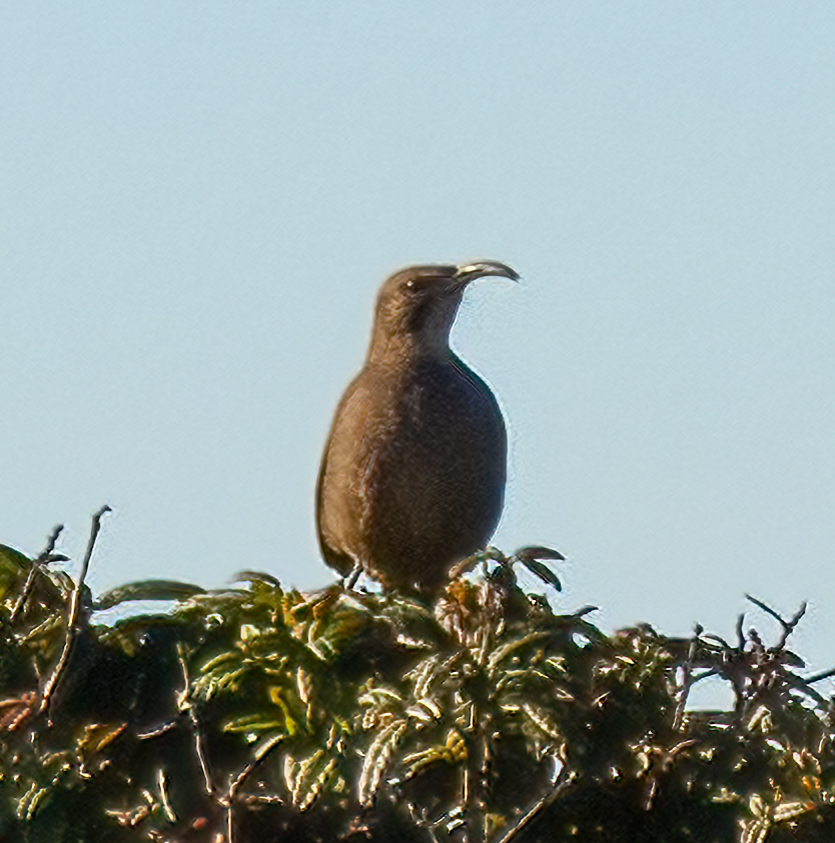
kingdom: Animalia
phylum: Chordata
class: Aves
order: Passeriformes
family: Mimidae
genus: Toxostoma
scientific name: Toxostoma redivivum
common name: California thrasher
